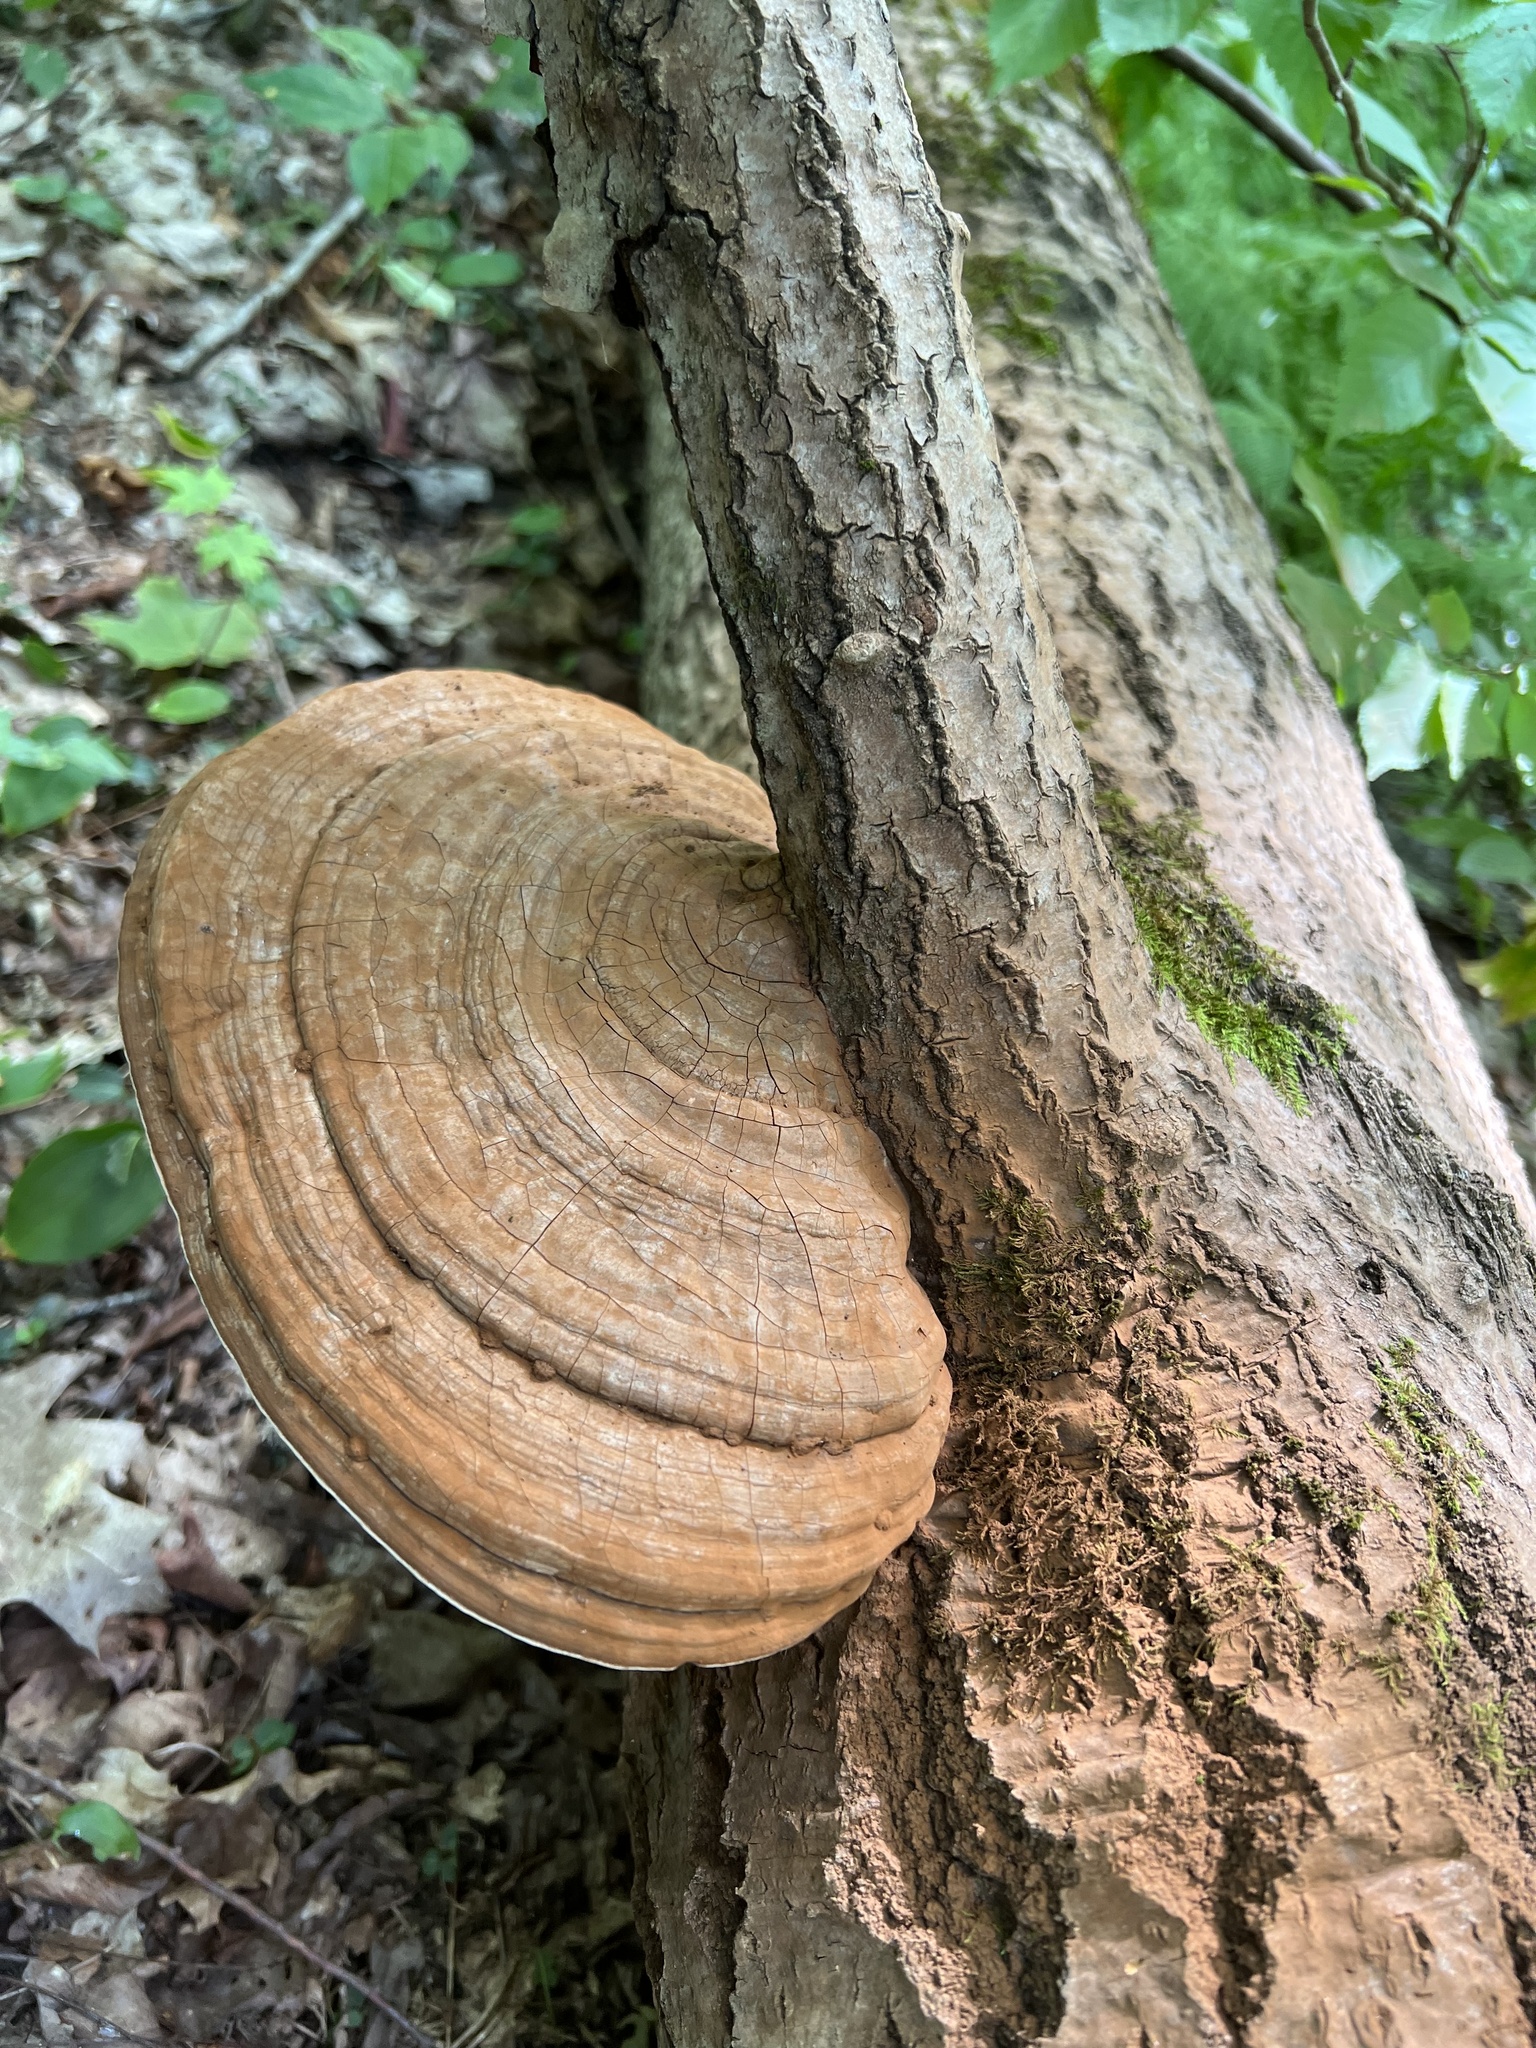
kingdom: Fungi
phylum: Basidiomycota
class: Agaricomycetes
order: Polyporales
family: Polyporaceae
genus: Ganoderma
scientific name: Ganoderma applanatum
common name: Artist's bracket
